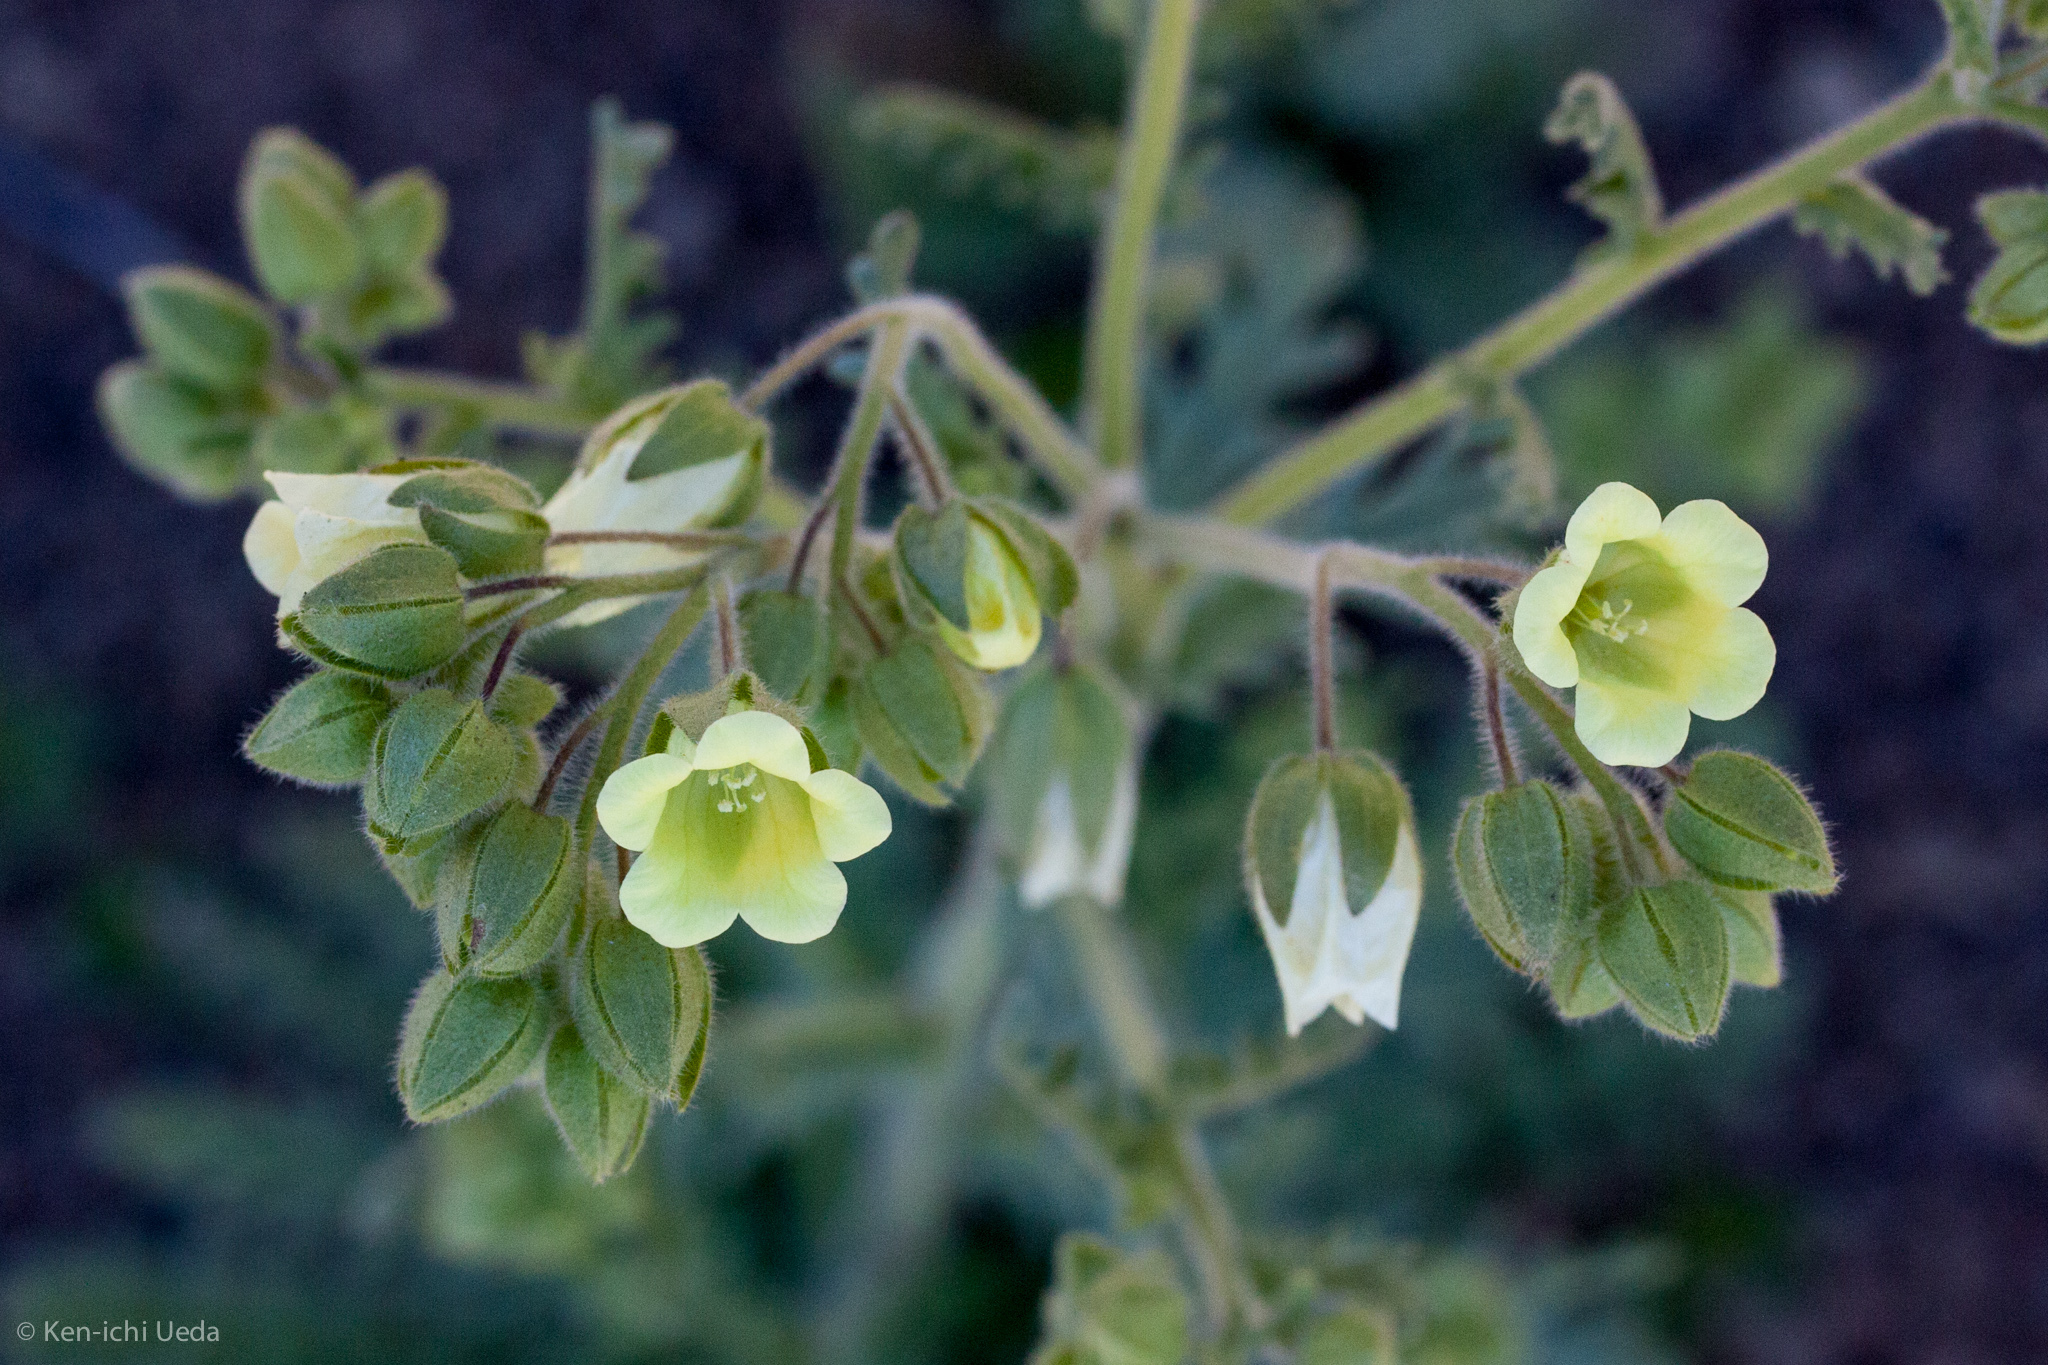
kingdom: Plantae
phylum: Tracheophyta
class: Magnoliopsida
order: Boraginales
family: Hydrophyllaceae
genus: Emmenanthe
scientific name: Emmenanthe penduliflora
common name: Whispering-bells
